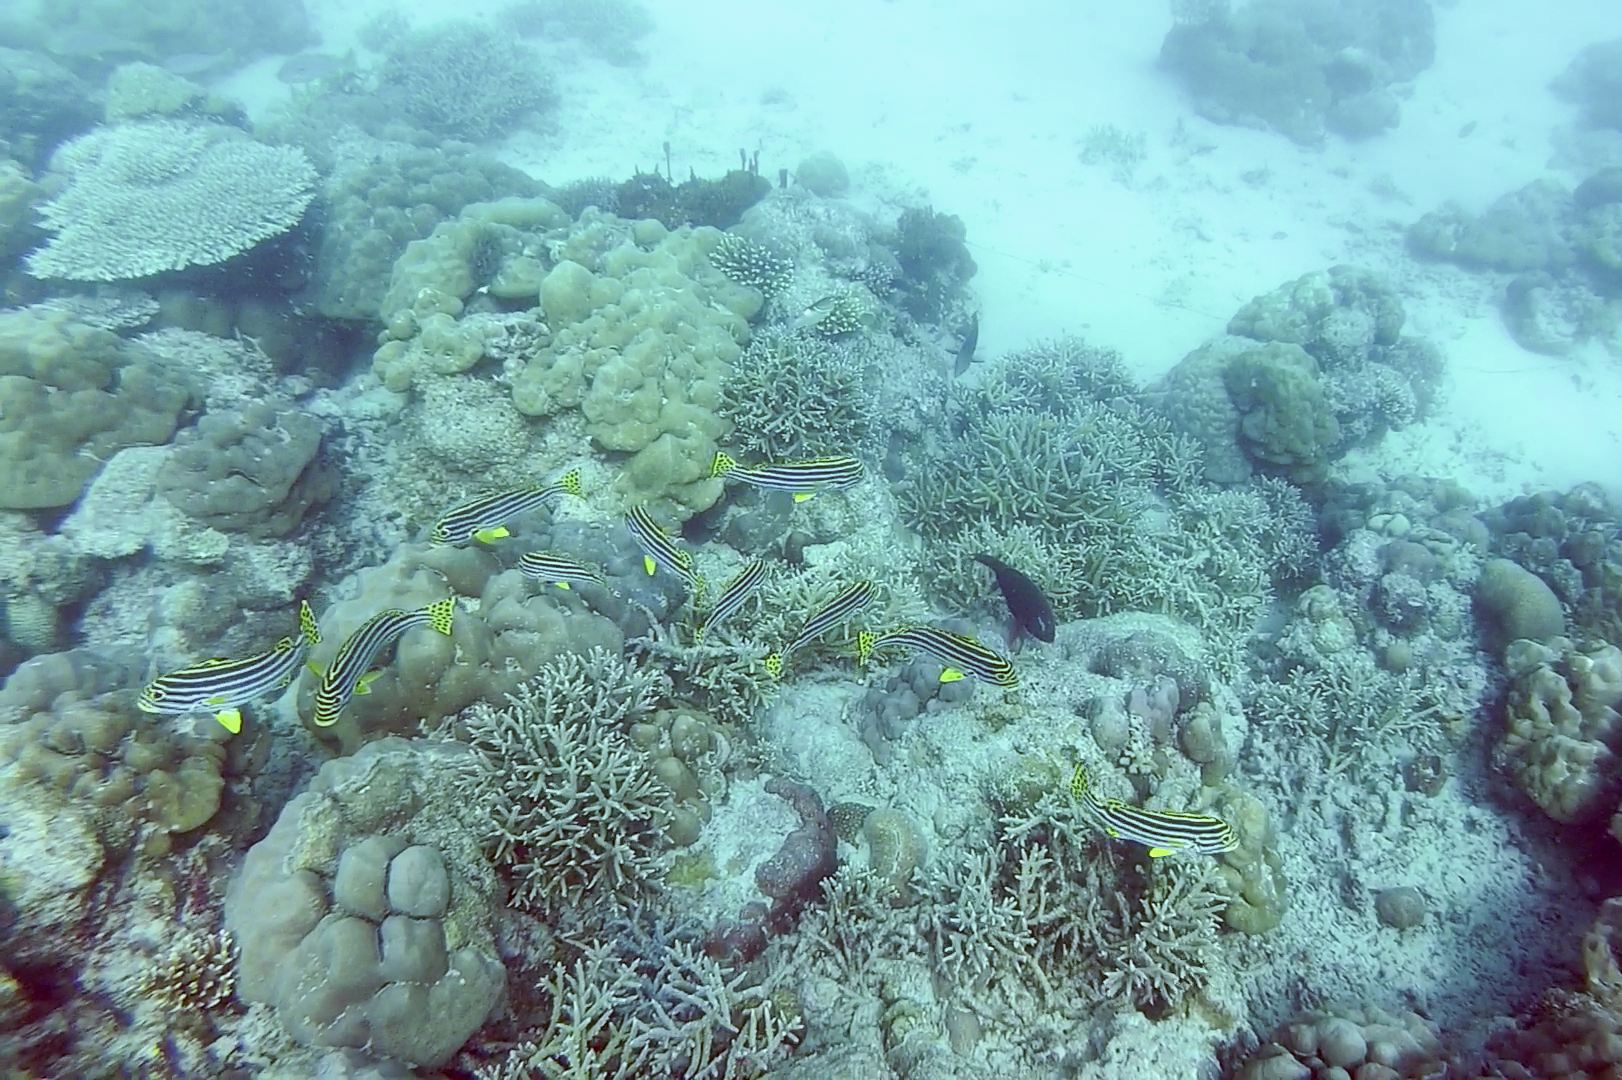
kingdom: Animalia
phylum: Chordata
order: Perciformes
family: Haemulidae
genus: Plectorhinchus
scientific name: Plectorhinchus vittatus
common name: Oriental sweetlips
